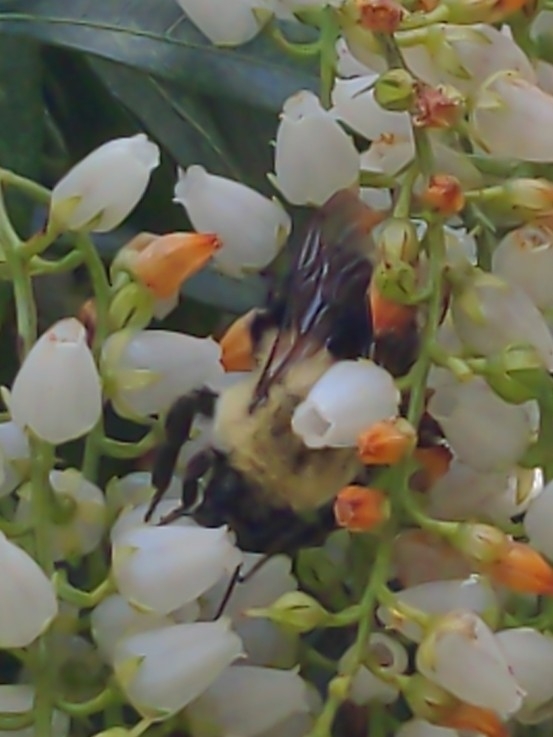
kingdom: Animalia
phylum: Arthropoda
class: Insecta
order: Hymenoptera
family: Apidae
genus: Bombus
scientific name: Bombus impatiens
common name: Common eastern bumble bee
